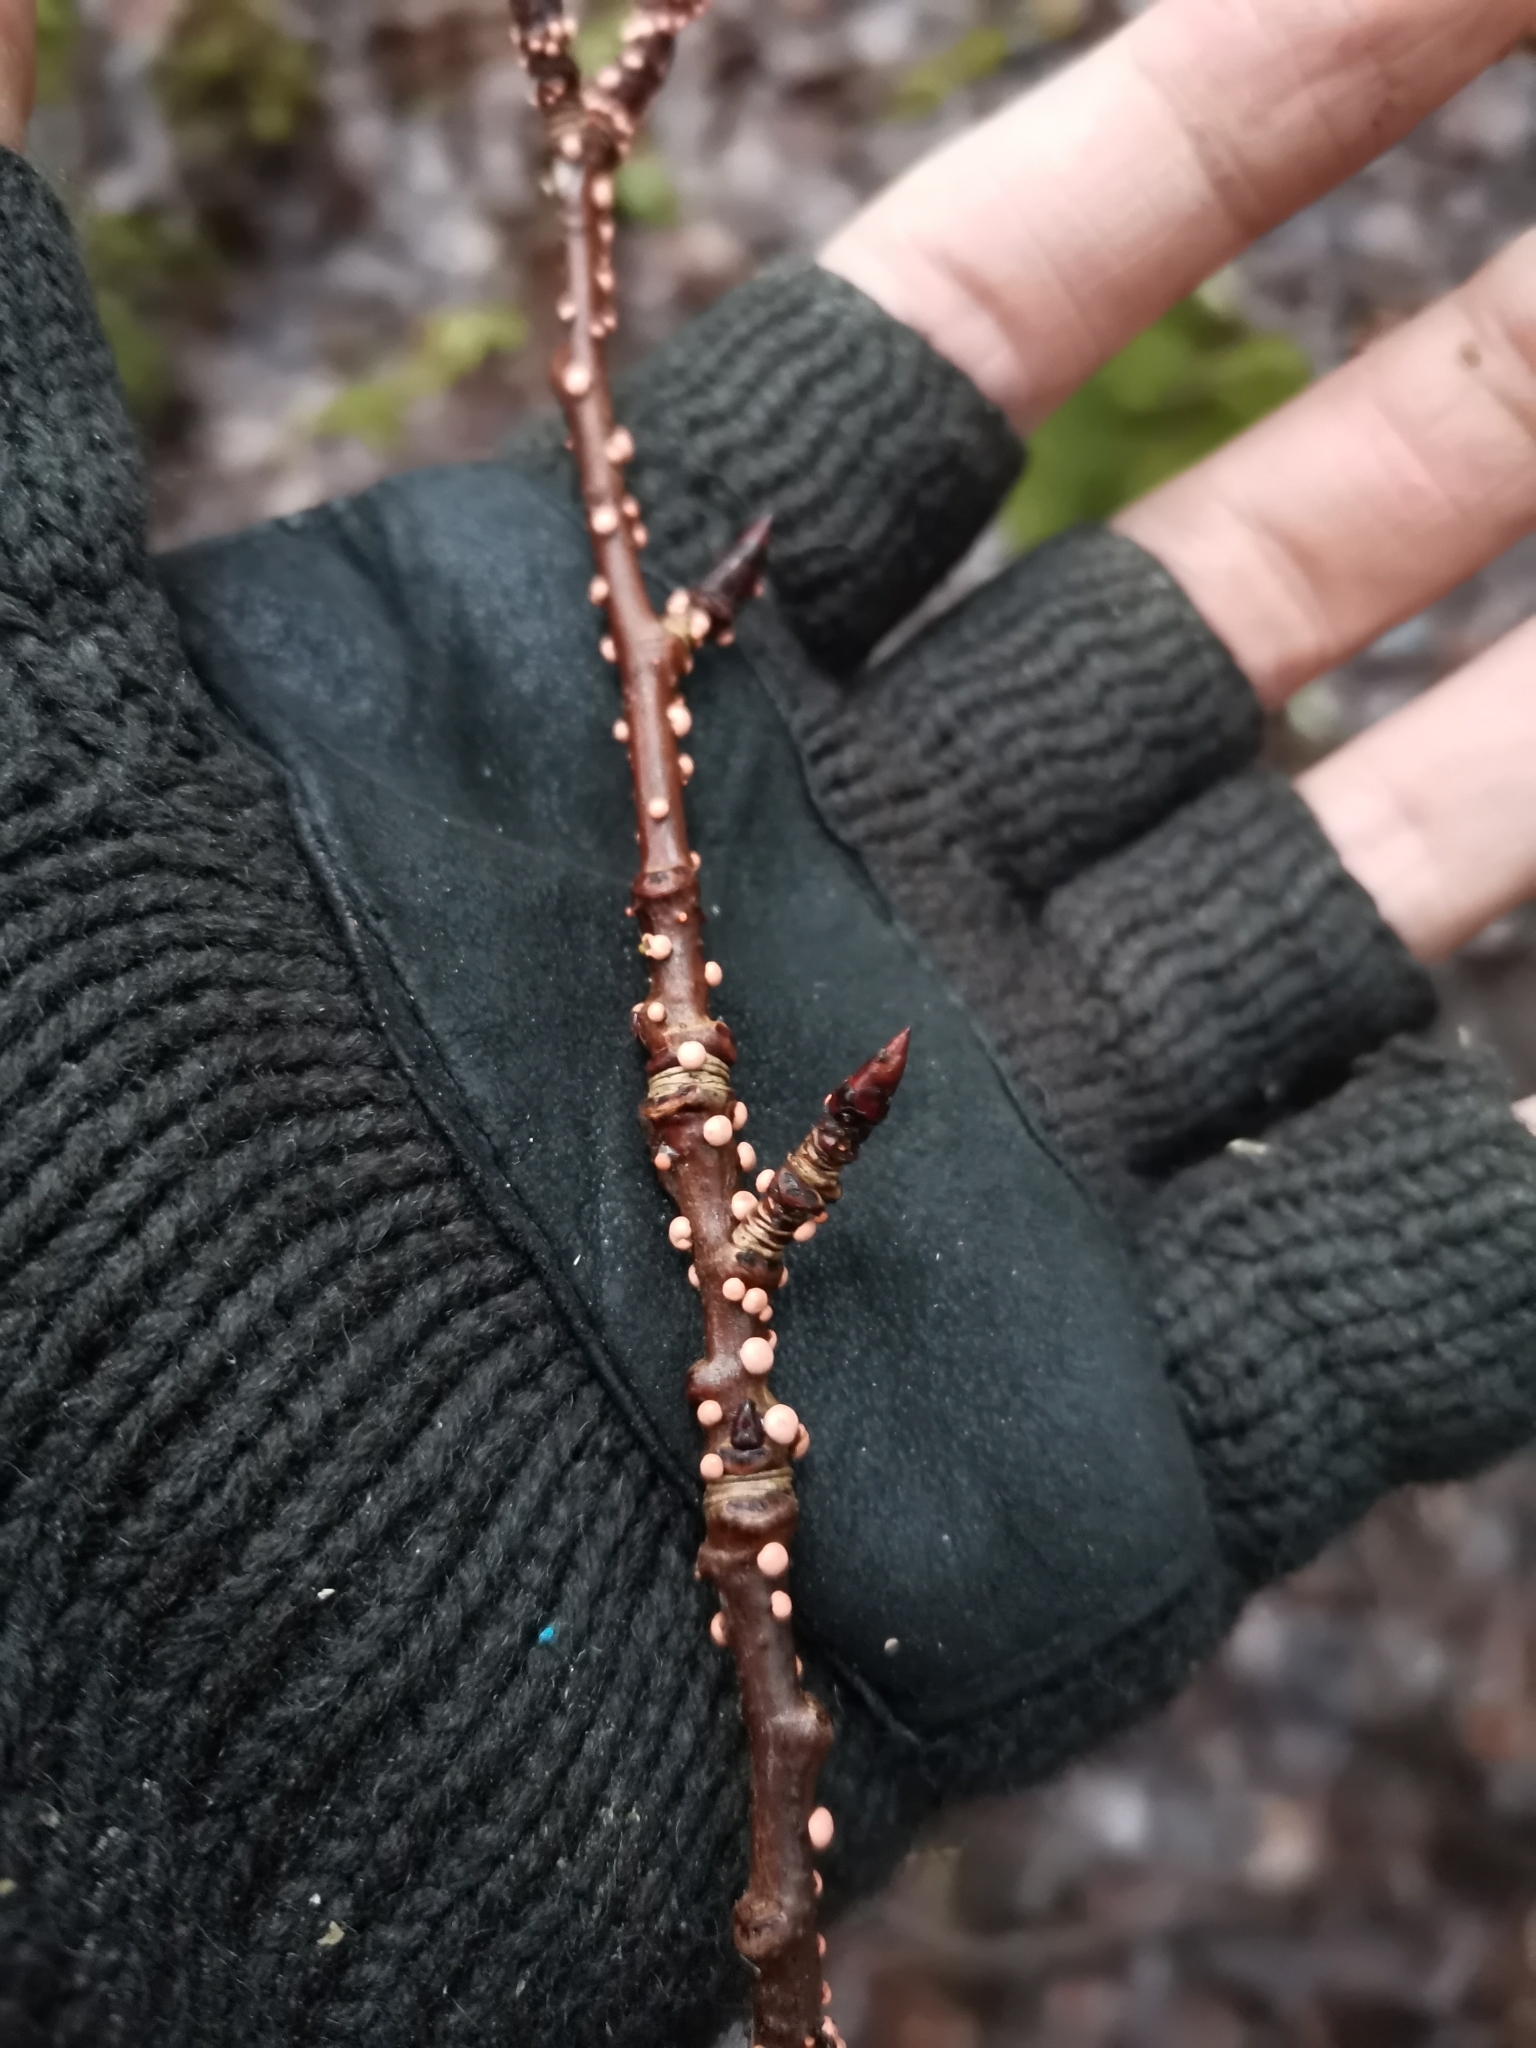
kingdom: Fungi
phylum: Ascomycota
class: Sordariomycetes
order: Hypocreales
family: Nectriaceae
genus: Nectria
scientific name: Nectria cinnabarina
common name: Coral spot
